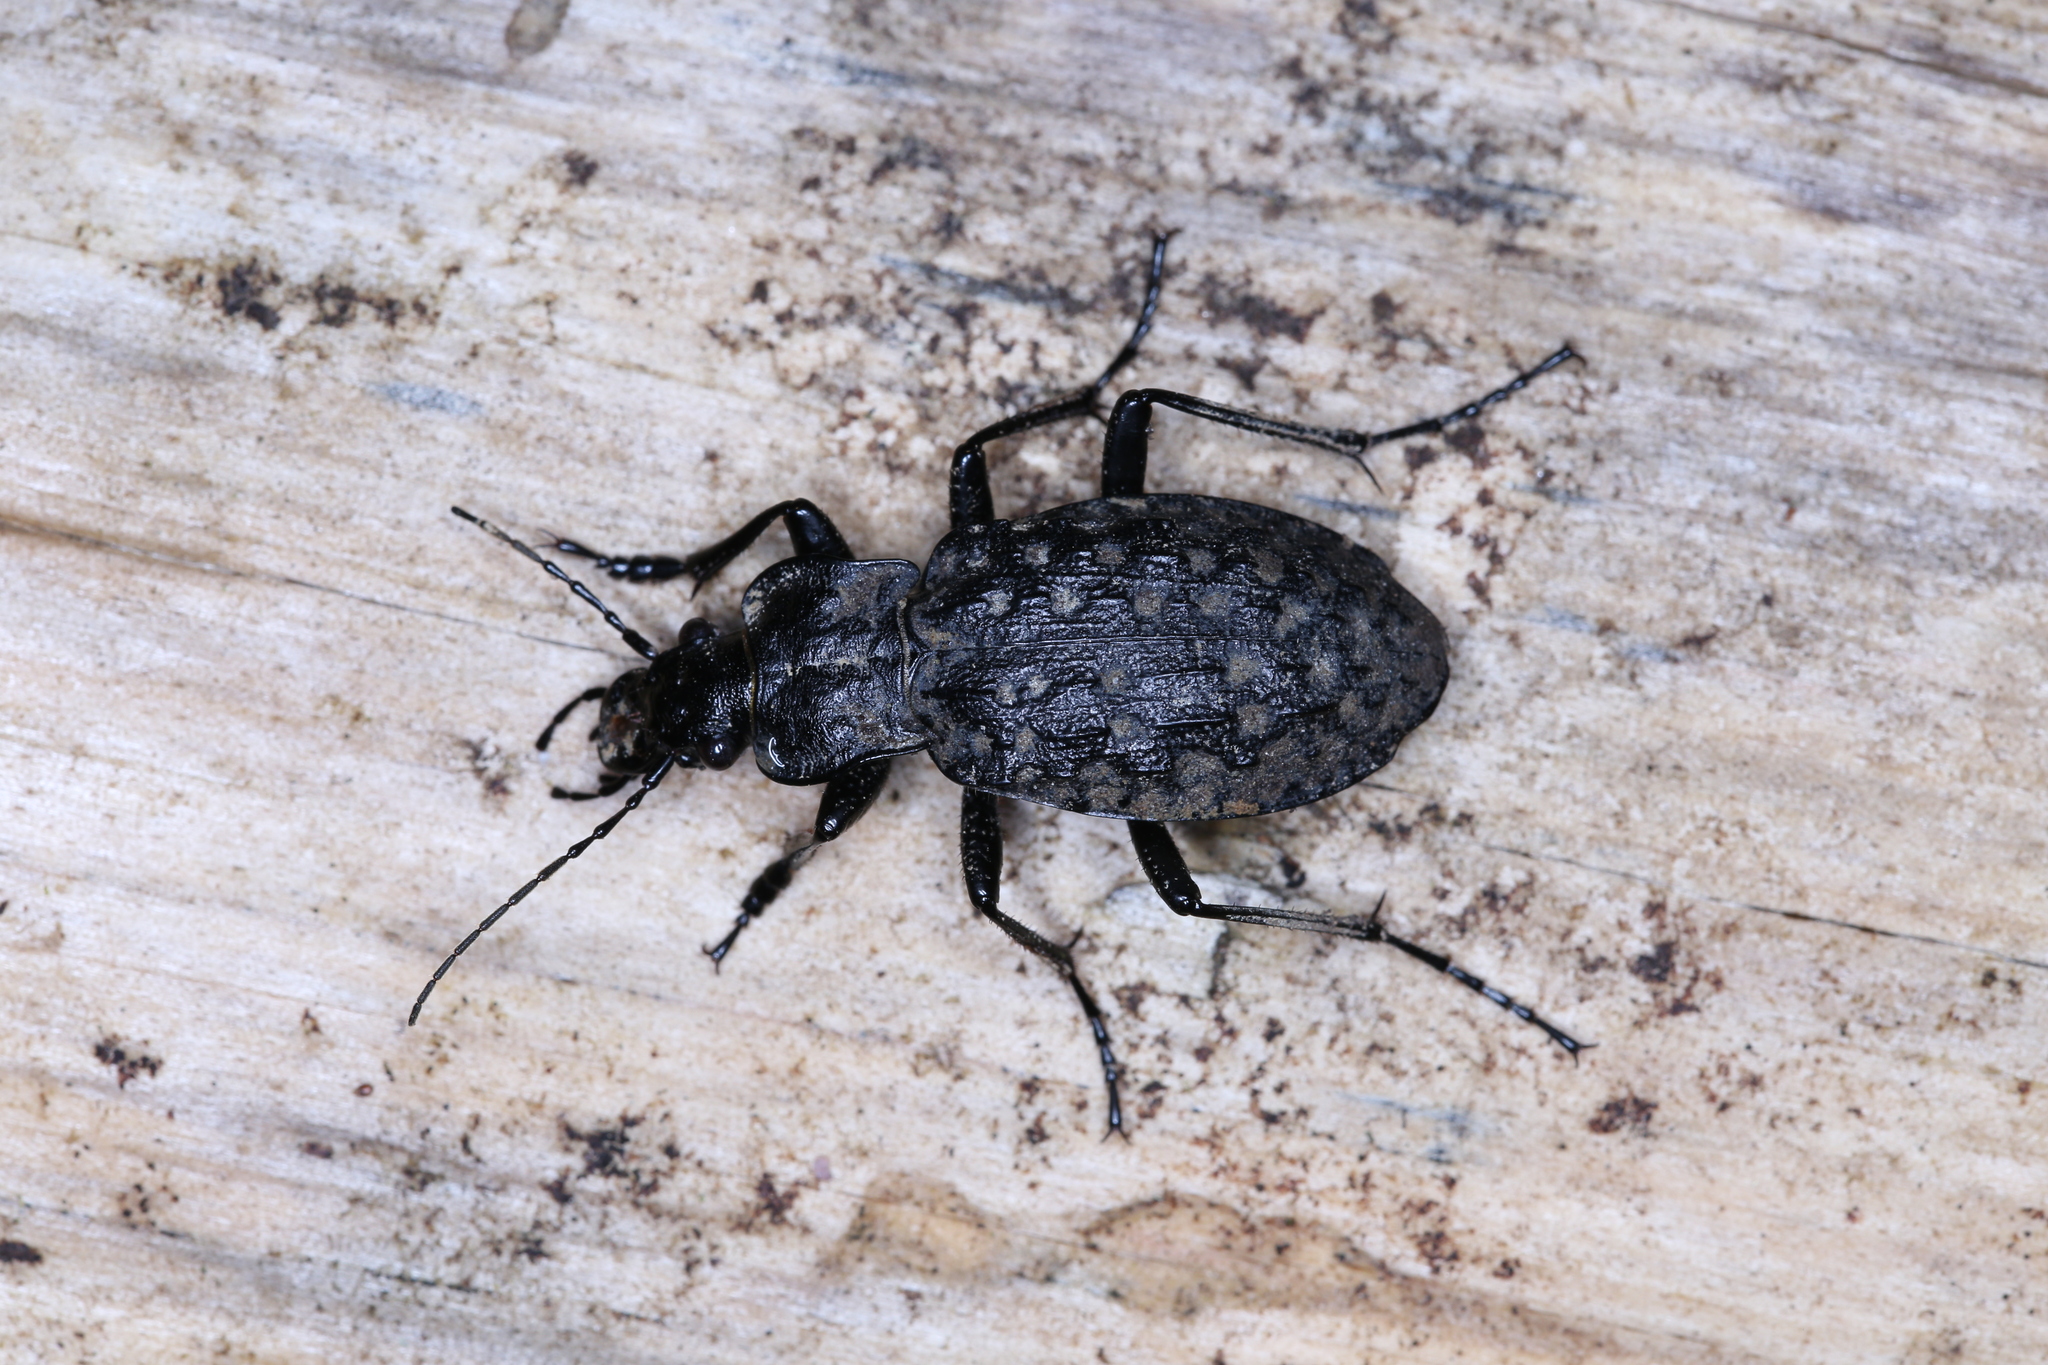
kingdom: Animalia
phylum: Arthropoda
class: Insecta
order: Coleoptera
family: Carabidae
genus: Carabus
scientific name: Carabus nodulosus
